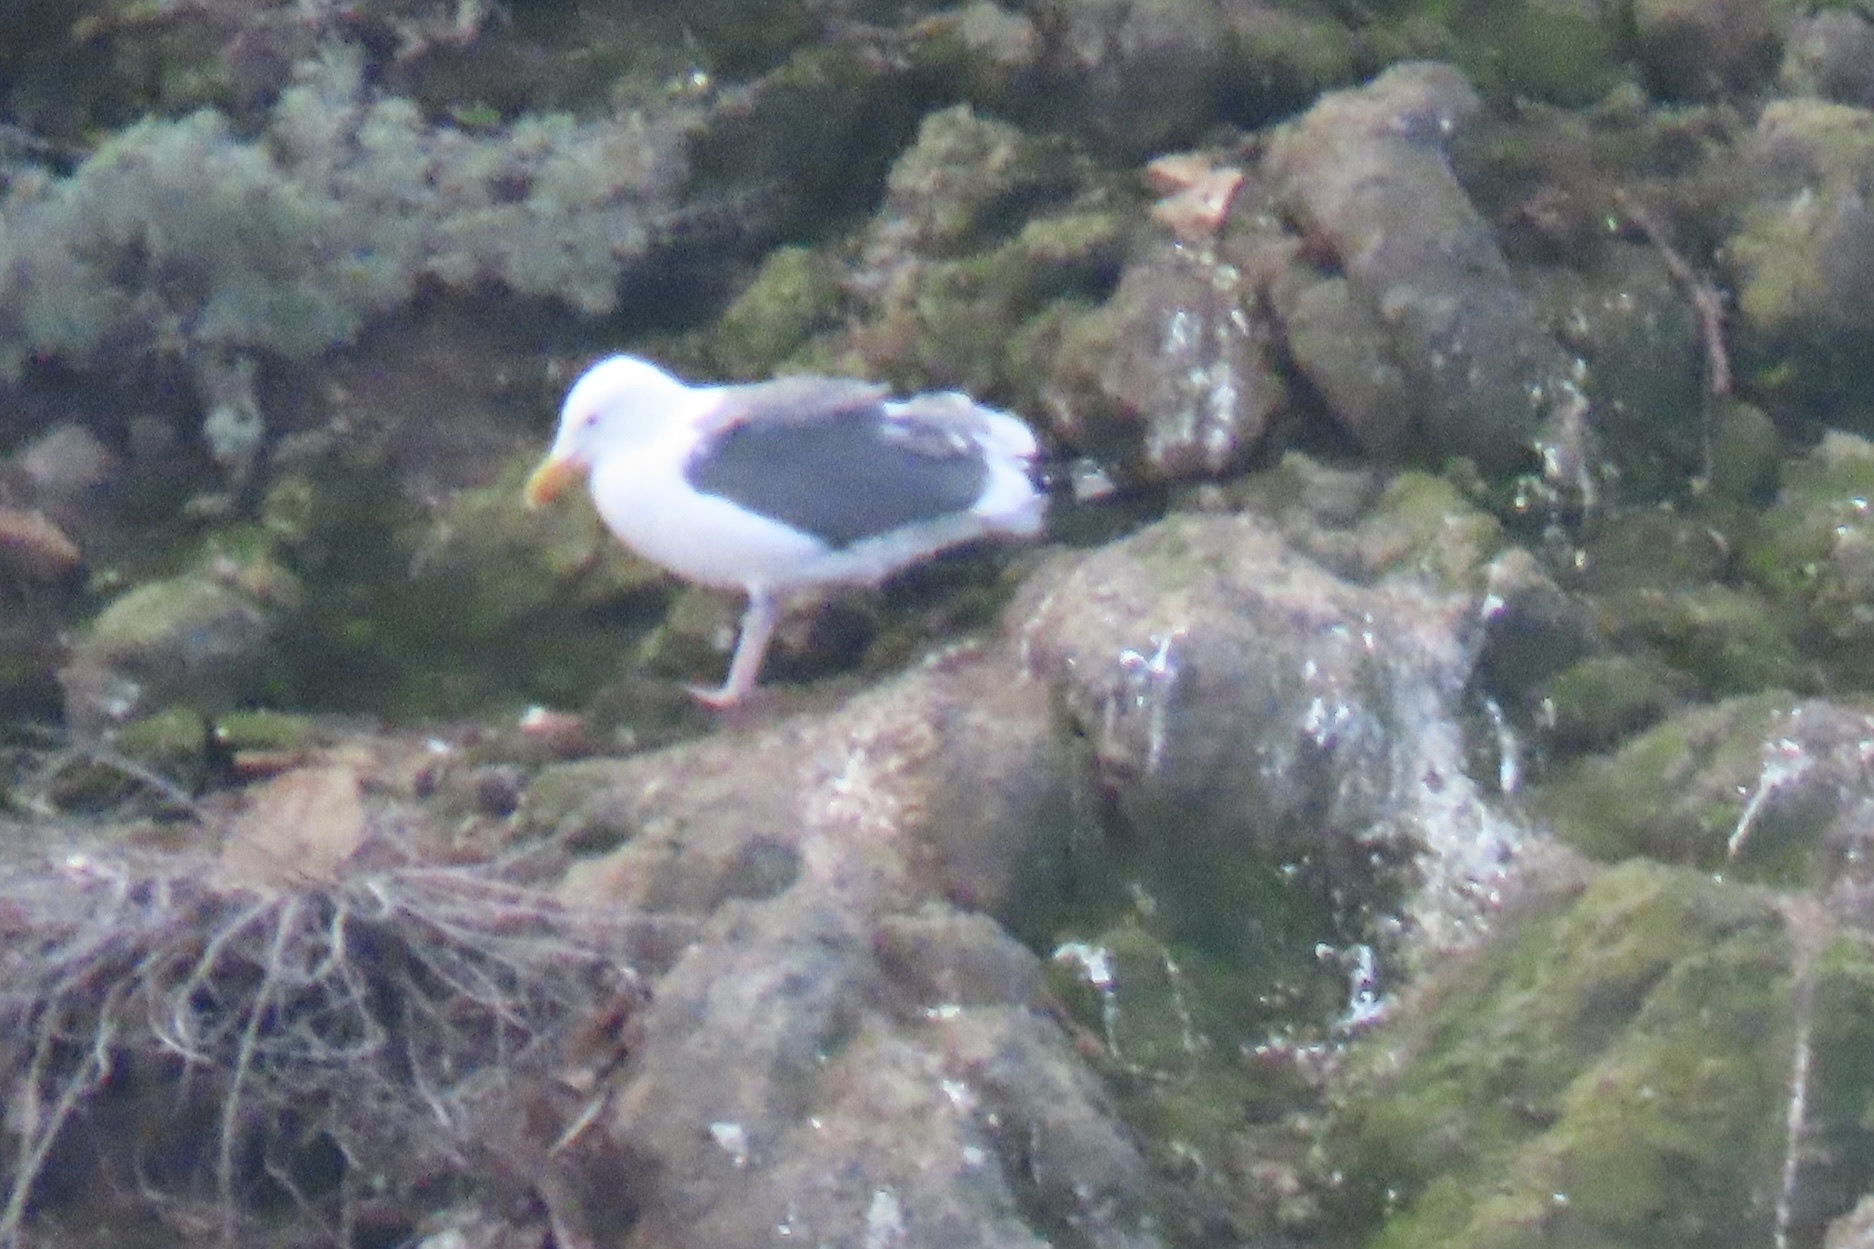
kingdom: Animalia
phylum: Chordata
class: Aves
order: Charadriiformes
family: Laridae
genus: Larus
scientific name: Larus occidentalis
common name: Western gull
